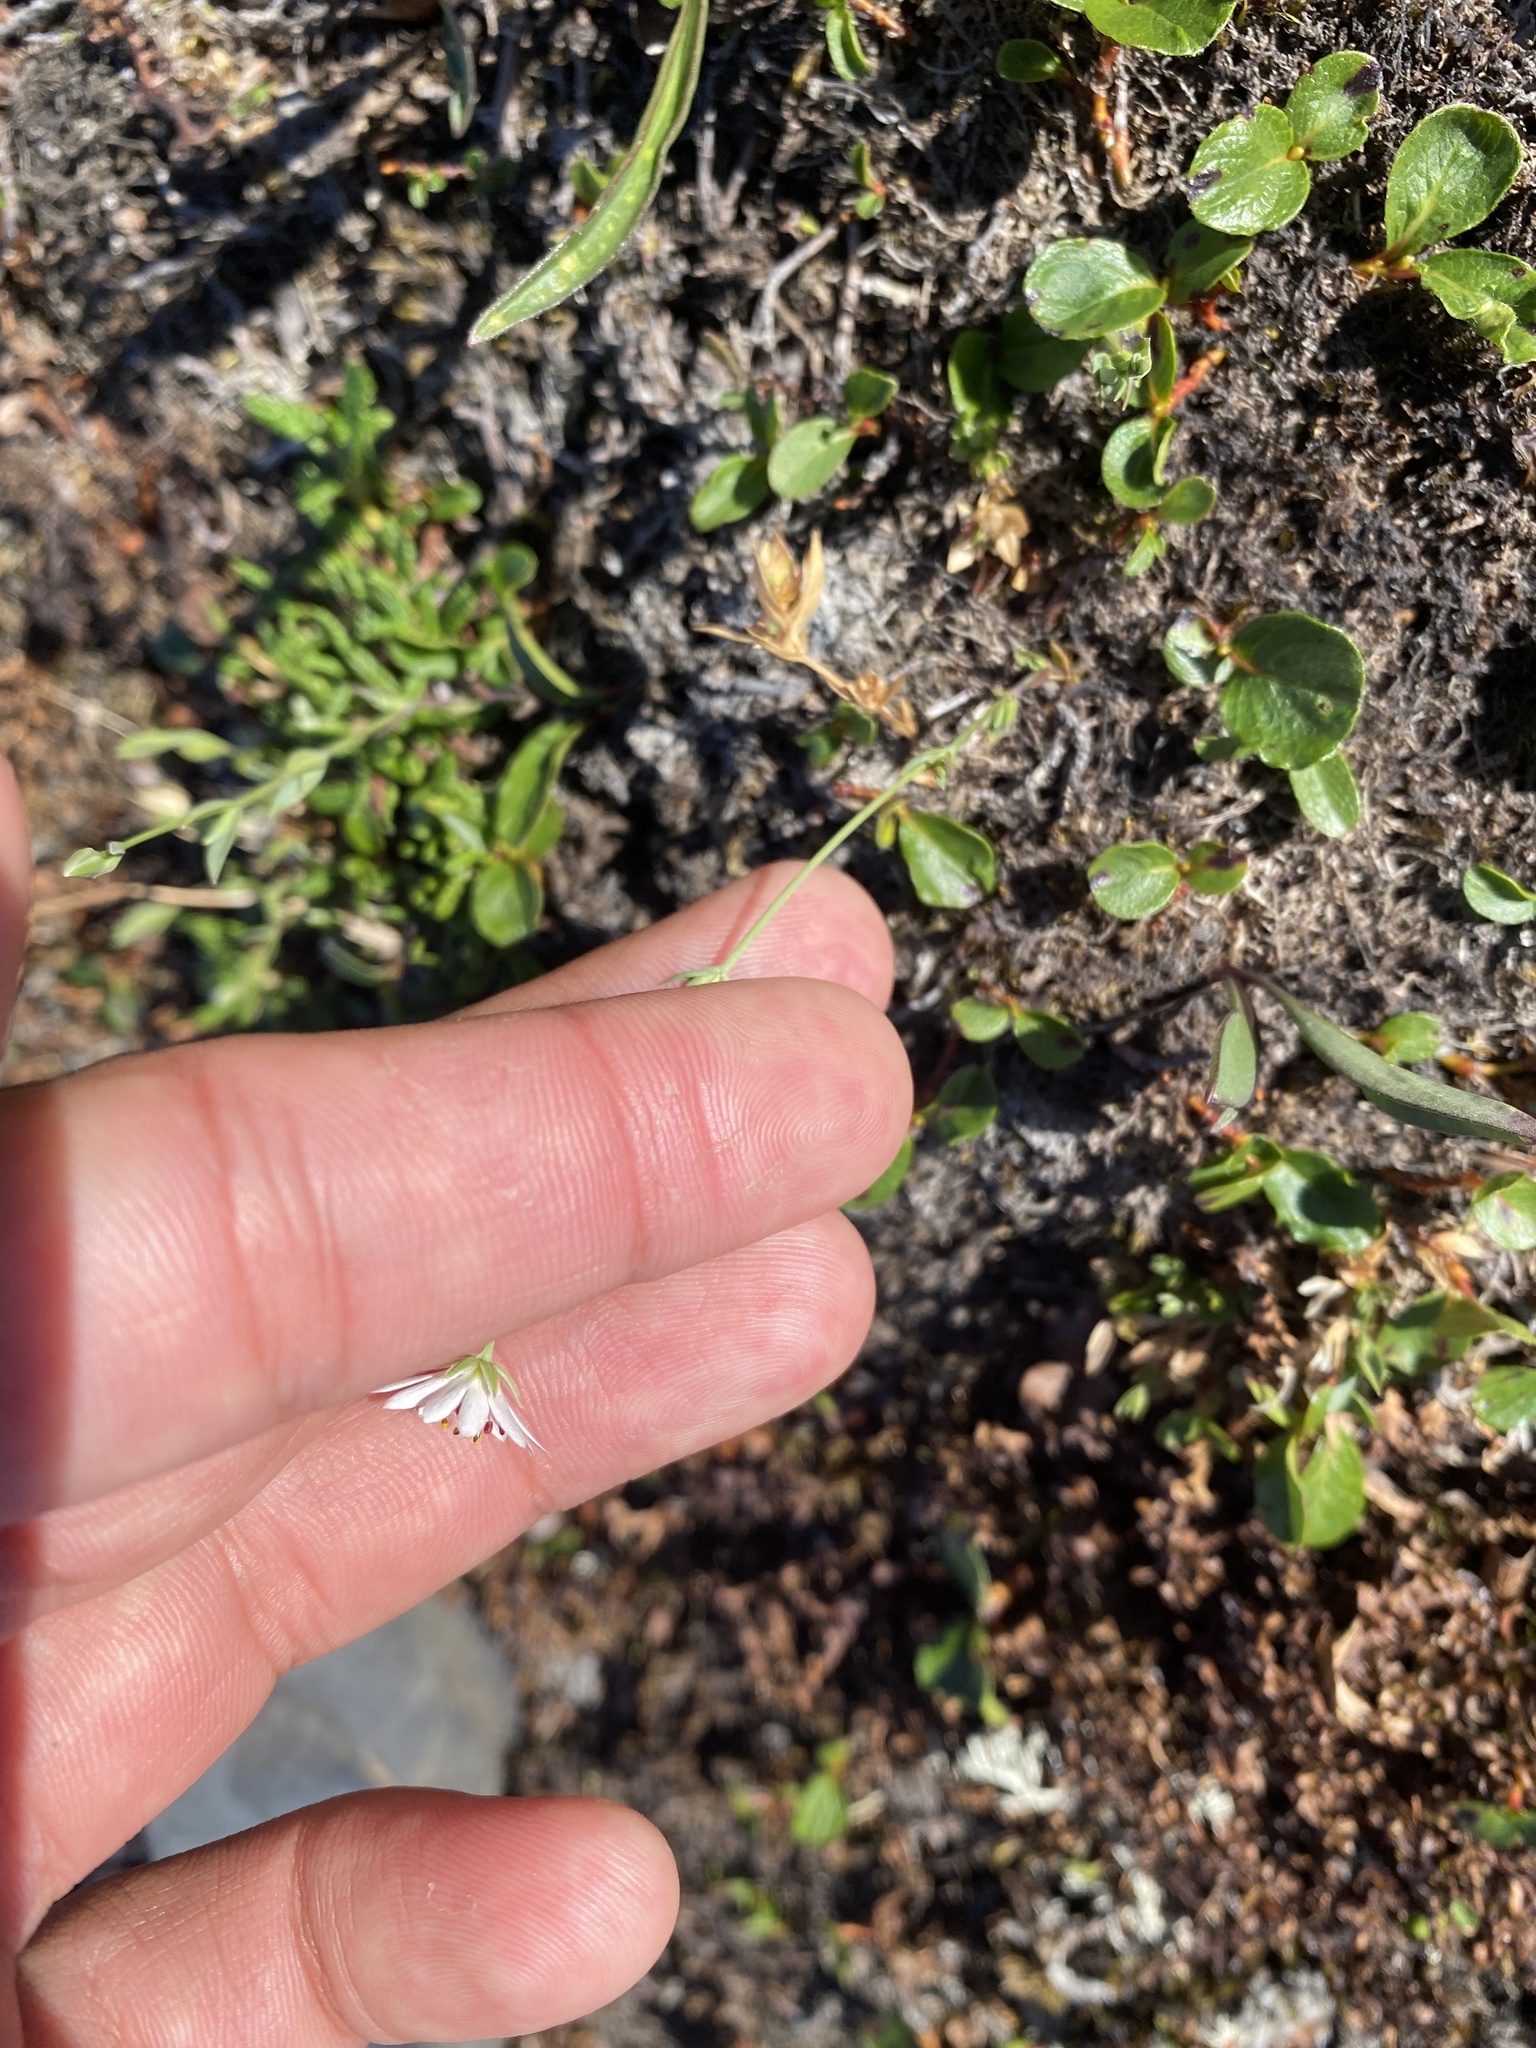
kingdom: Plantae
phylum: Tracheophyta
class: Magnoliopsida
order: Caryophyllales
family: Caryophyllaceae
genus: Stellaria
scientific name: Stellaria peduncularis
